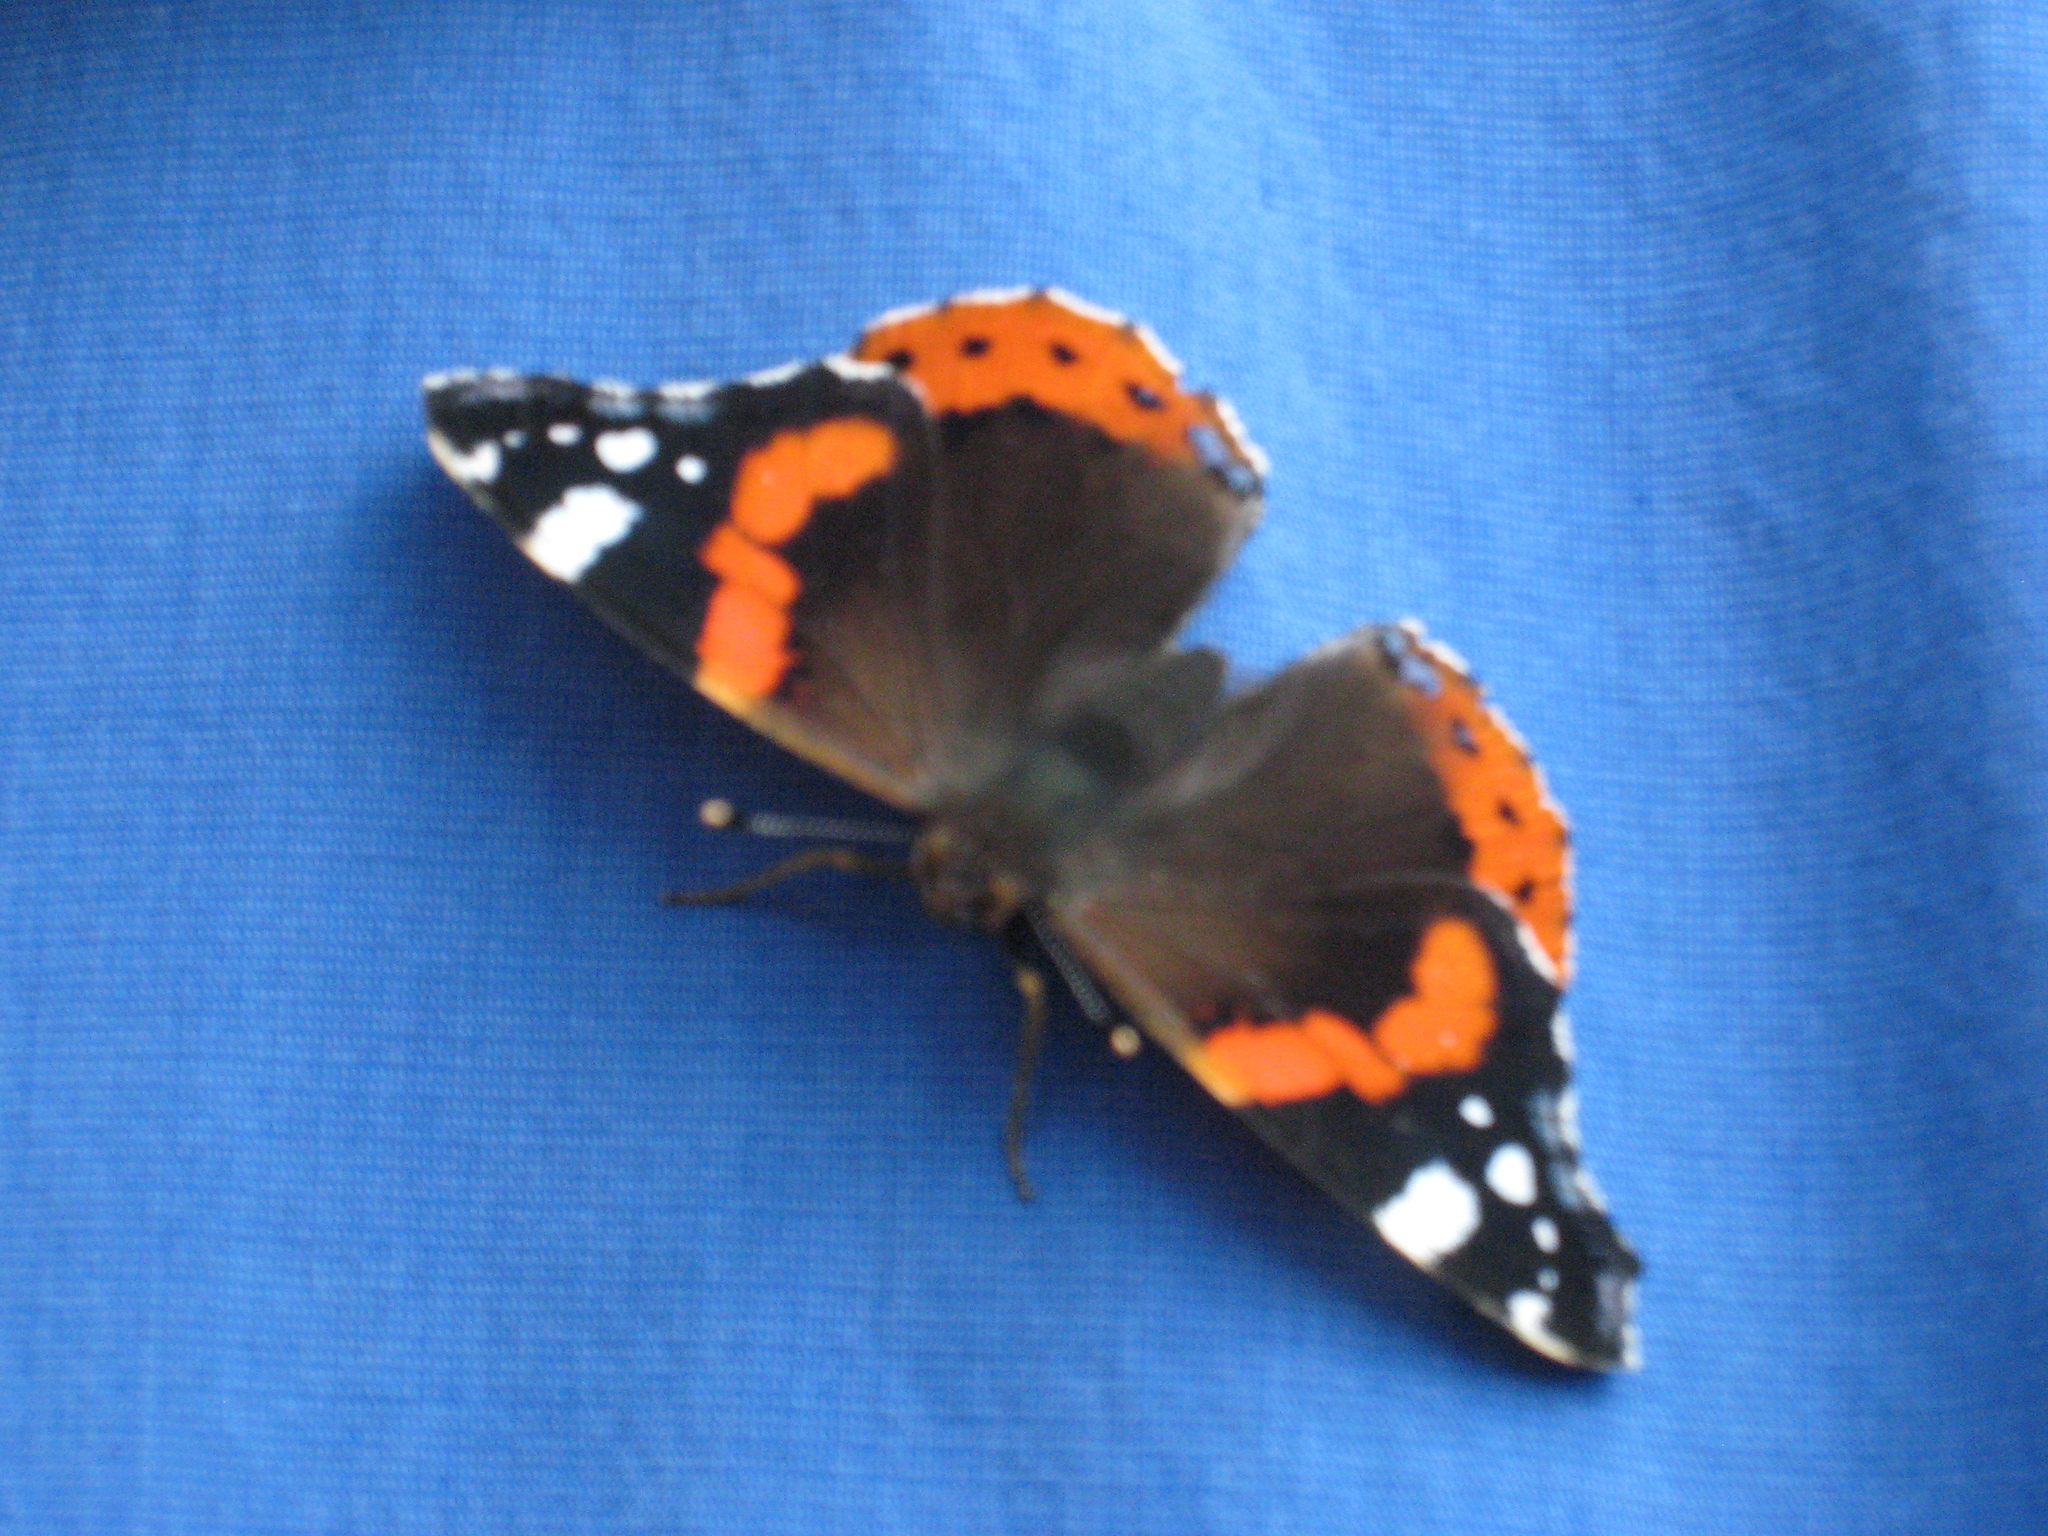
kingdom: Animalia
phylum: Arthropoda
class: Insecta
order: Lepidoptera
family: Nymphalidae
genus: Vanessa
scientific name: Vanessa atalanta
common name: Red admiral
